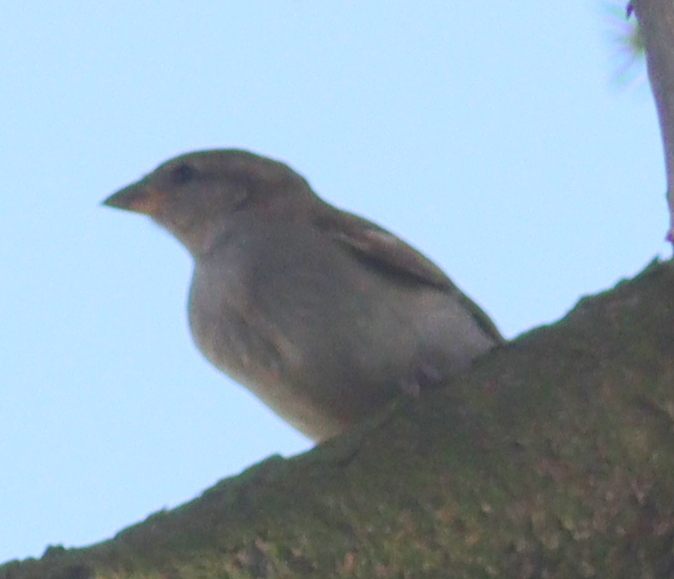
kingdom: Animalia
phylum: Chordata
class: Aves
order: Passeriformes
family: Passeridae
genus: Passer
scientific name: Passer domesticus
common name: House sparrow
